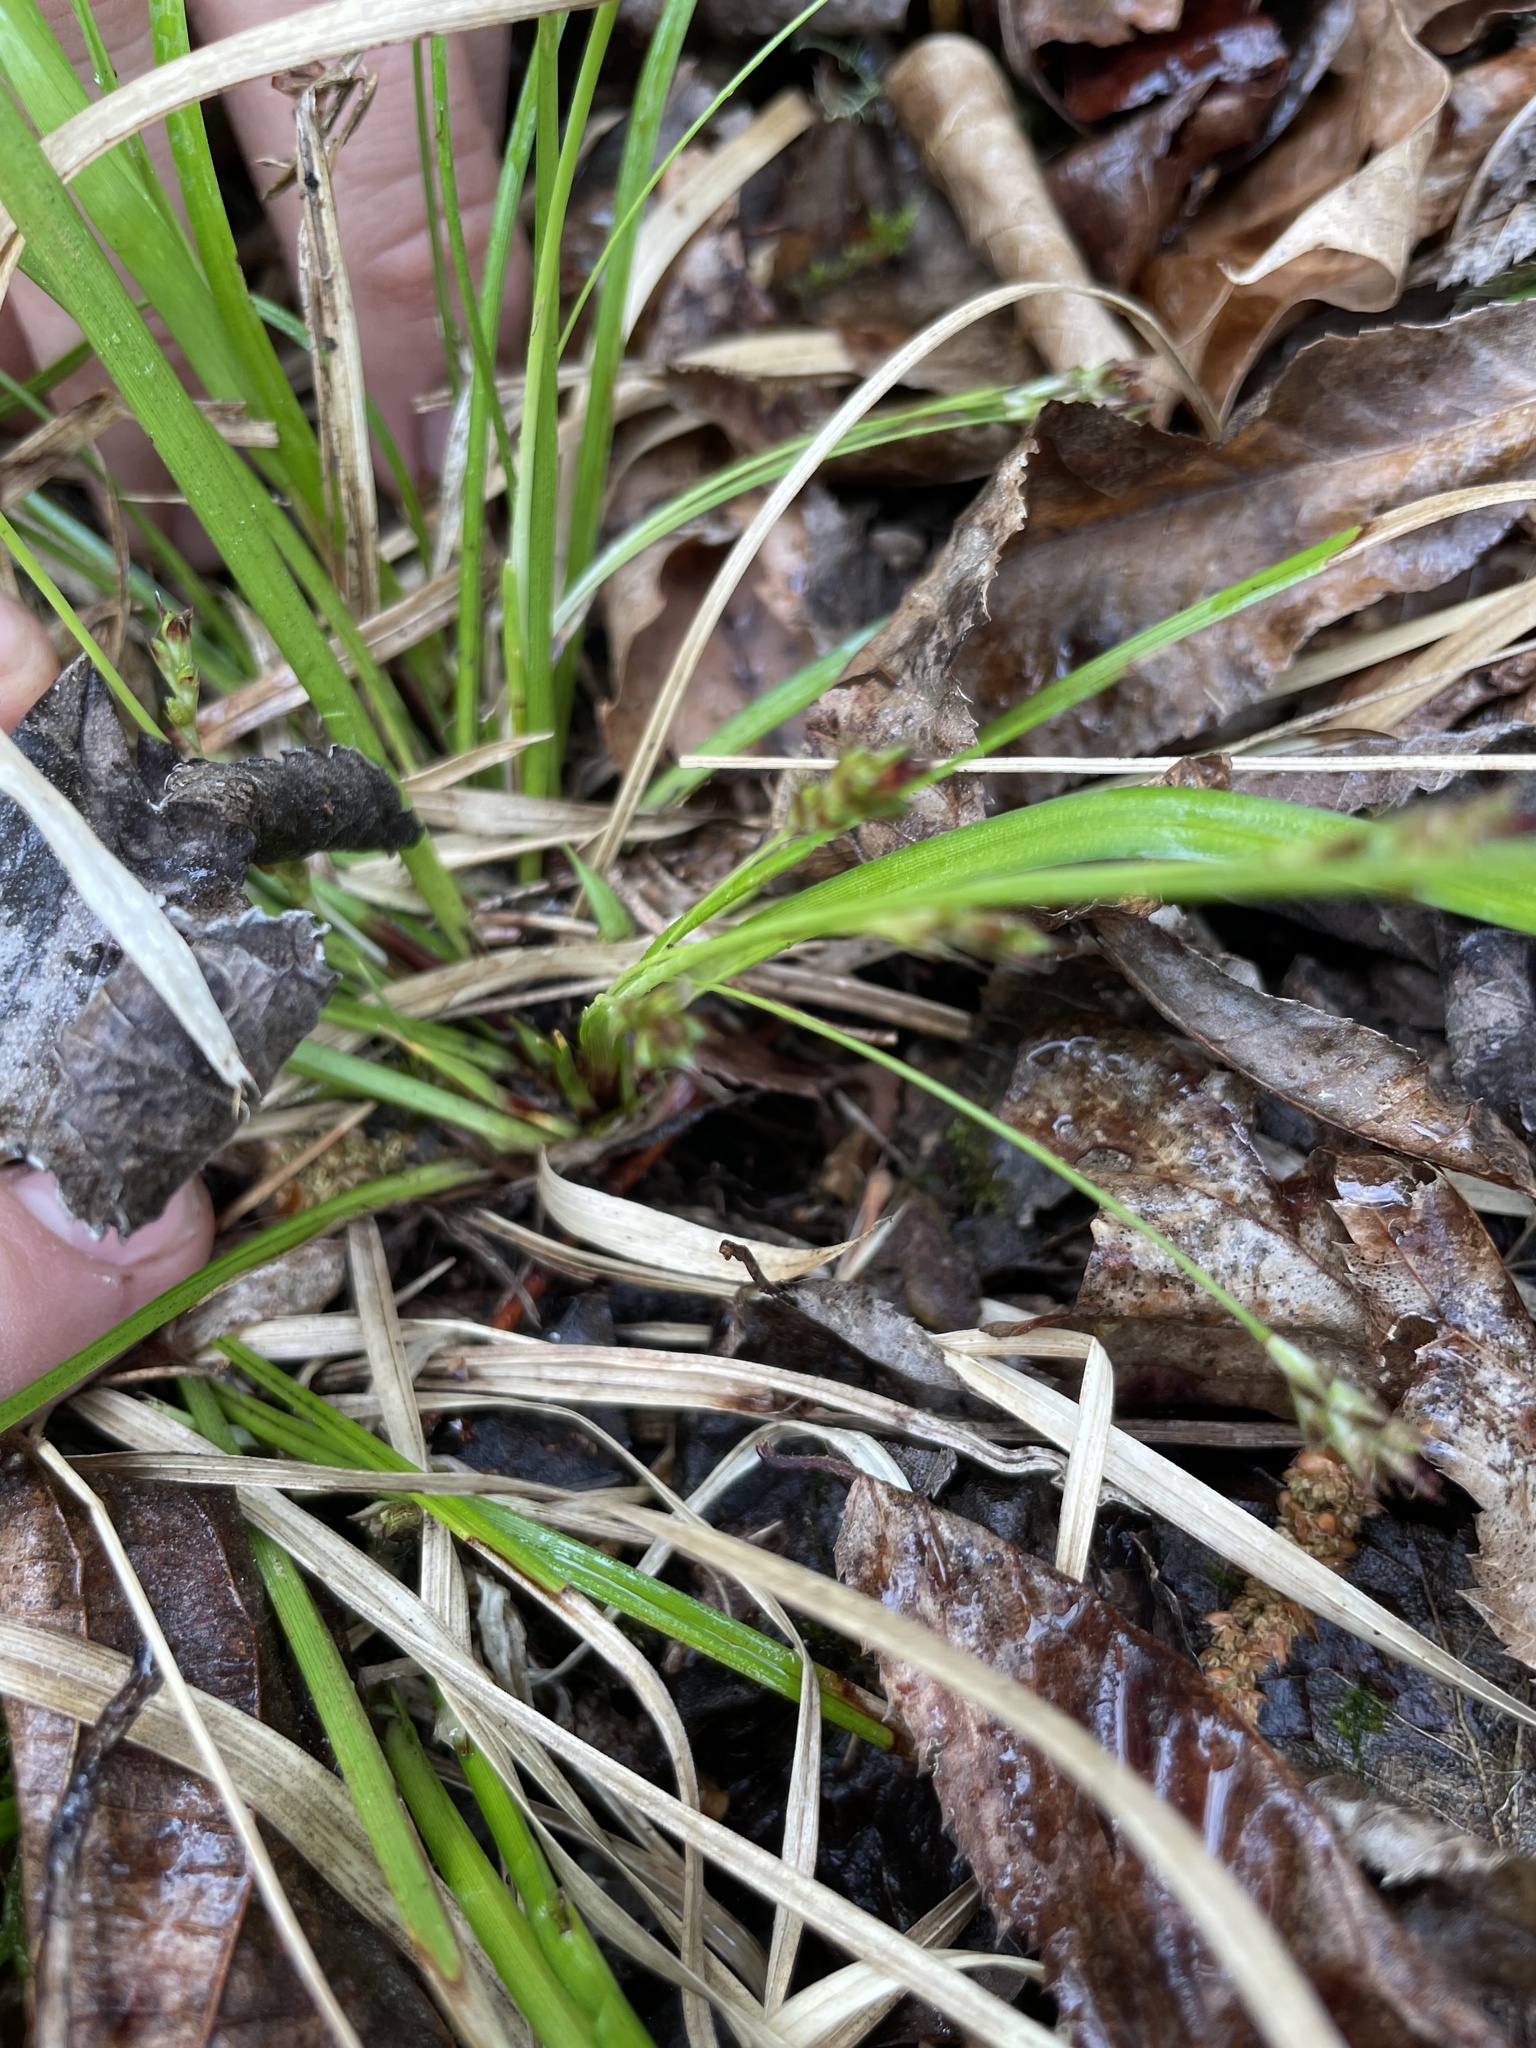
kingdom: Plantae
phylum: Tracheophyta
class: Liliopsida
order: Poales
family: Cyperaceae
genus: Carex
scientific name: Carex pedunculata
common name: Pedunculate sedge
